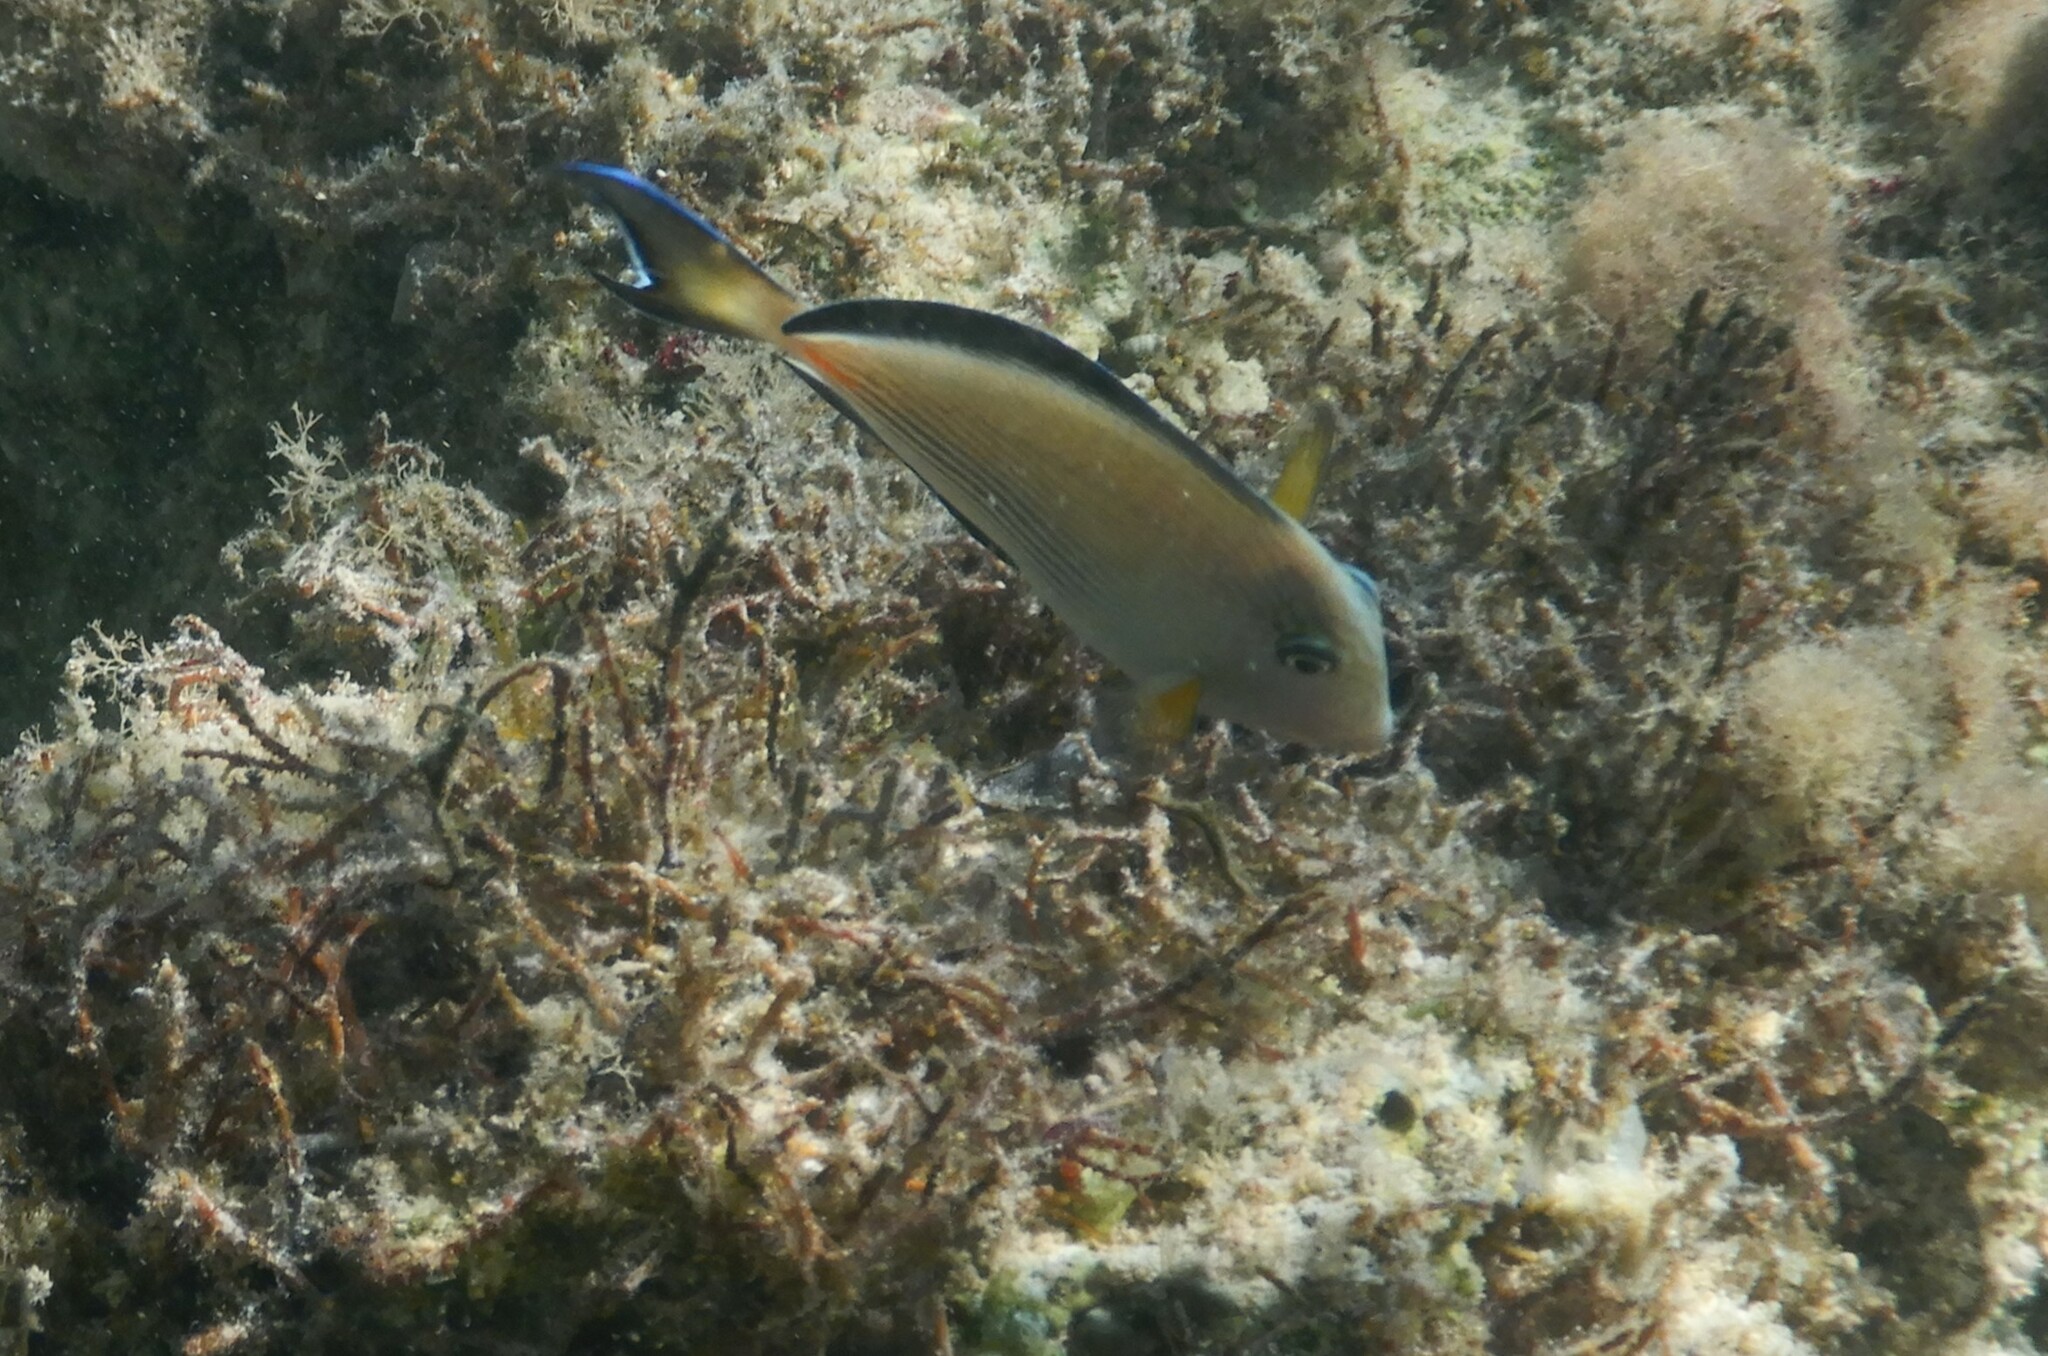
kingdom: Animalia
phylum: Chordata
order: Perciformes
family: Acanthuridae
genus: Acanthurus
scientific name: Acanthurus sohal
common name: Red sea surgeonfish
